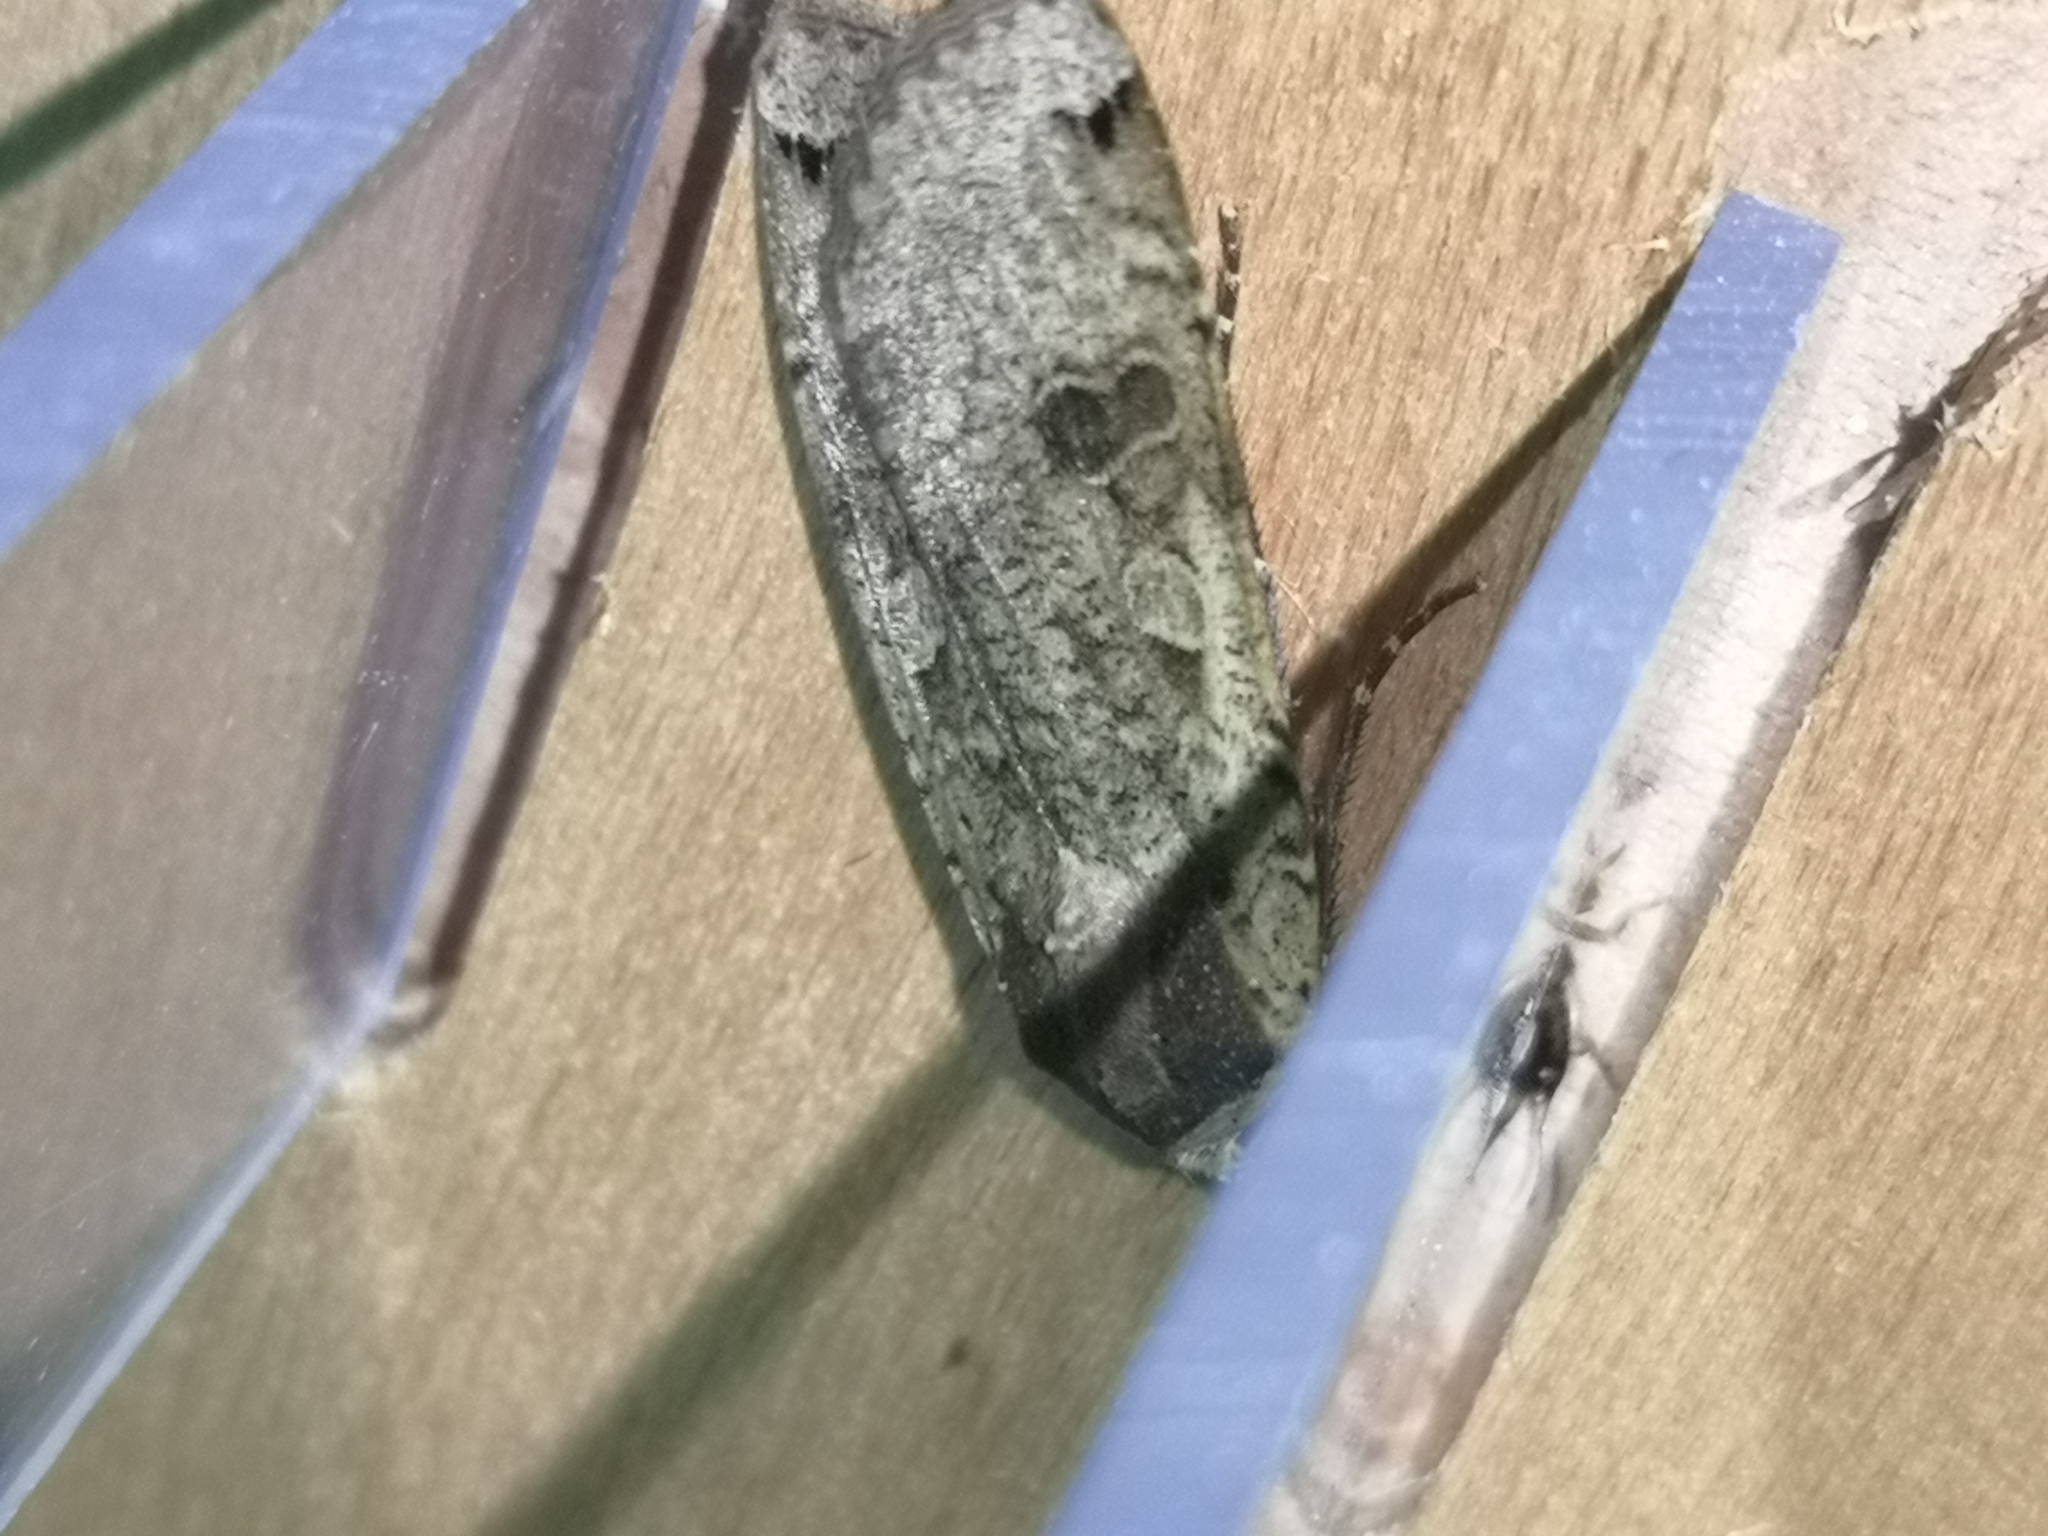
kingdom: Animalia
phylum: Arthropoda
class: Insecta
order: Lepidoptera
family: Noctuidae
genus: Noctua
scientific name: Noctua pronuba
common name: Large yellow underwing
